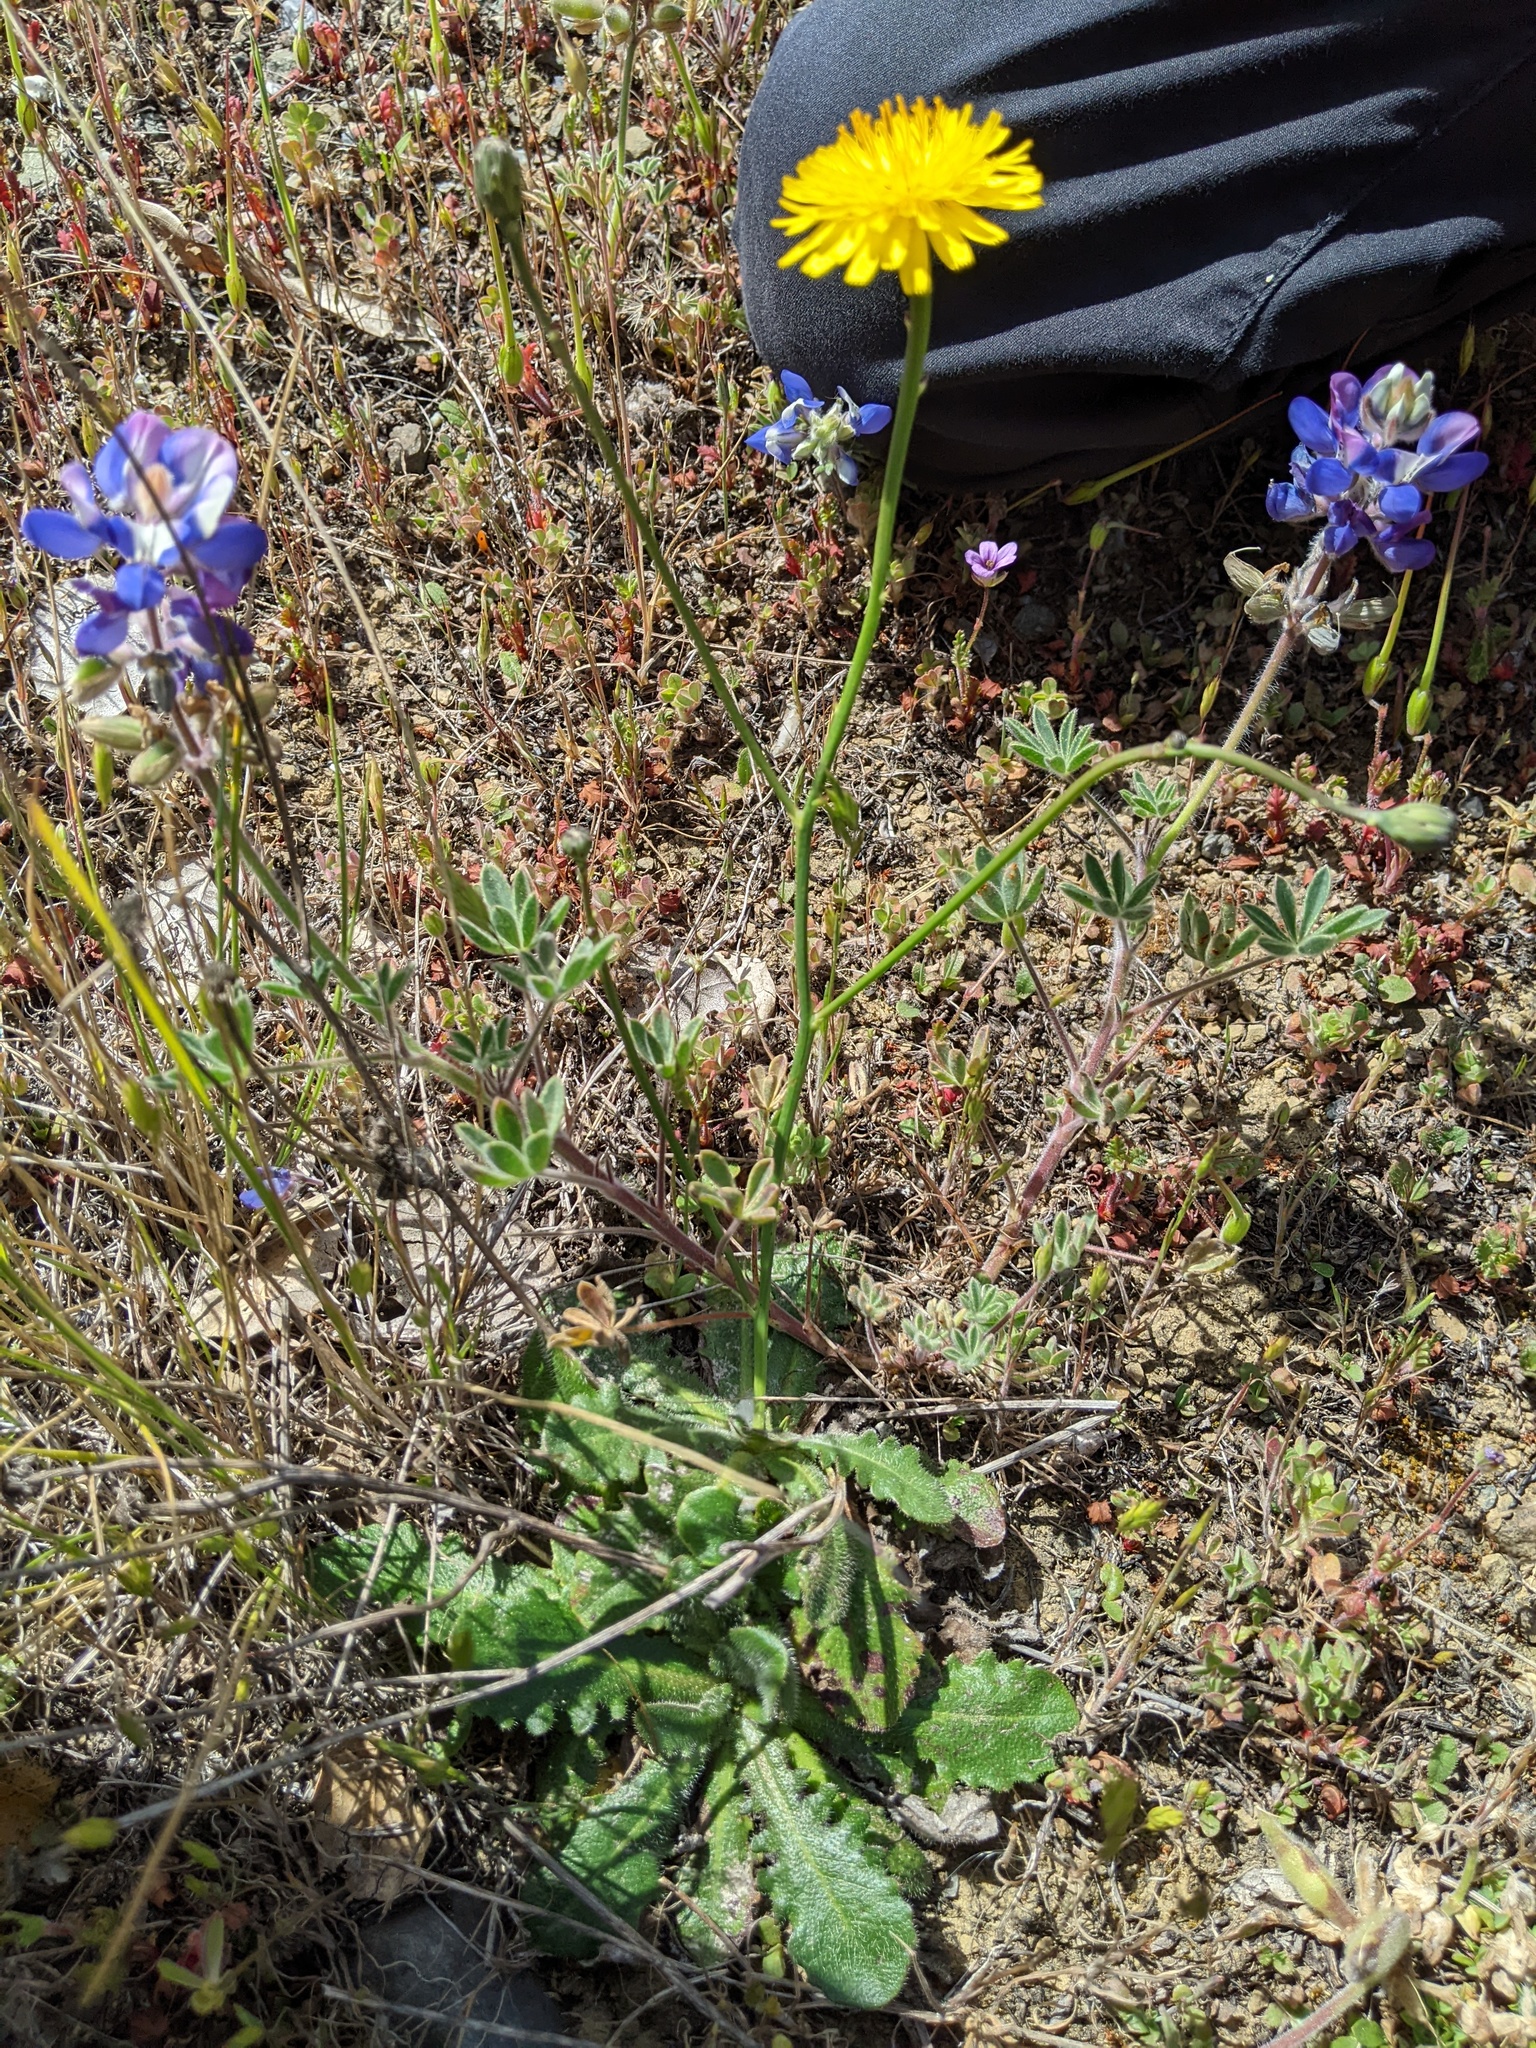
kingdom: Plantae
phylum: Tracheophyta
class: Magnoliopsida
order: Asterales
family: Asteraceae
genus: Hypochaeris
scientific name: Hypochaeris radicata
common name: Flatweed
